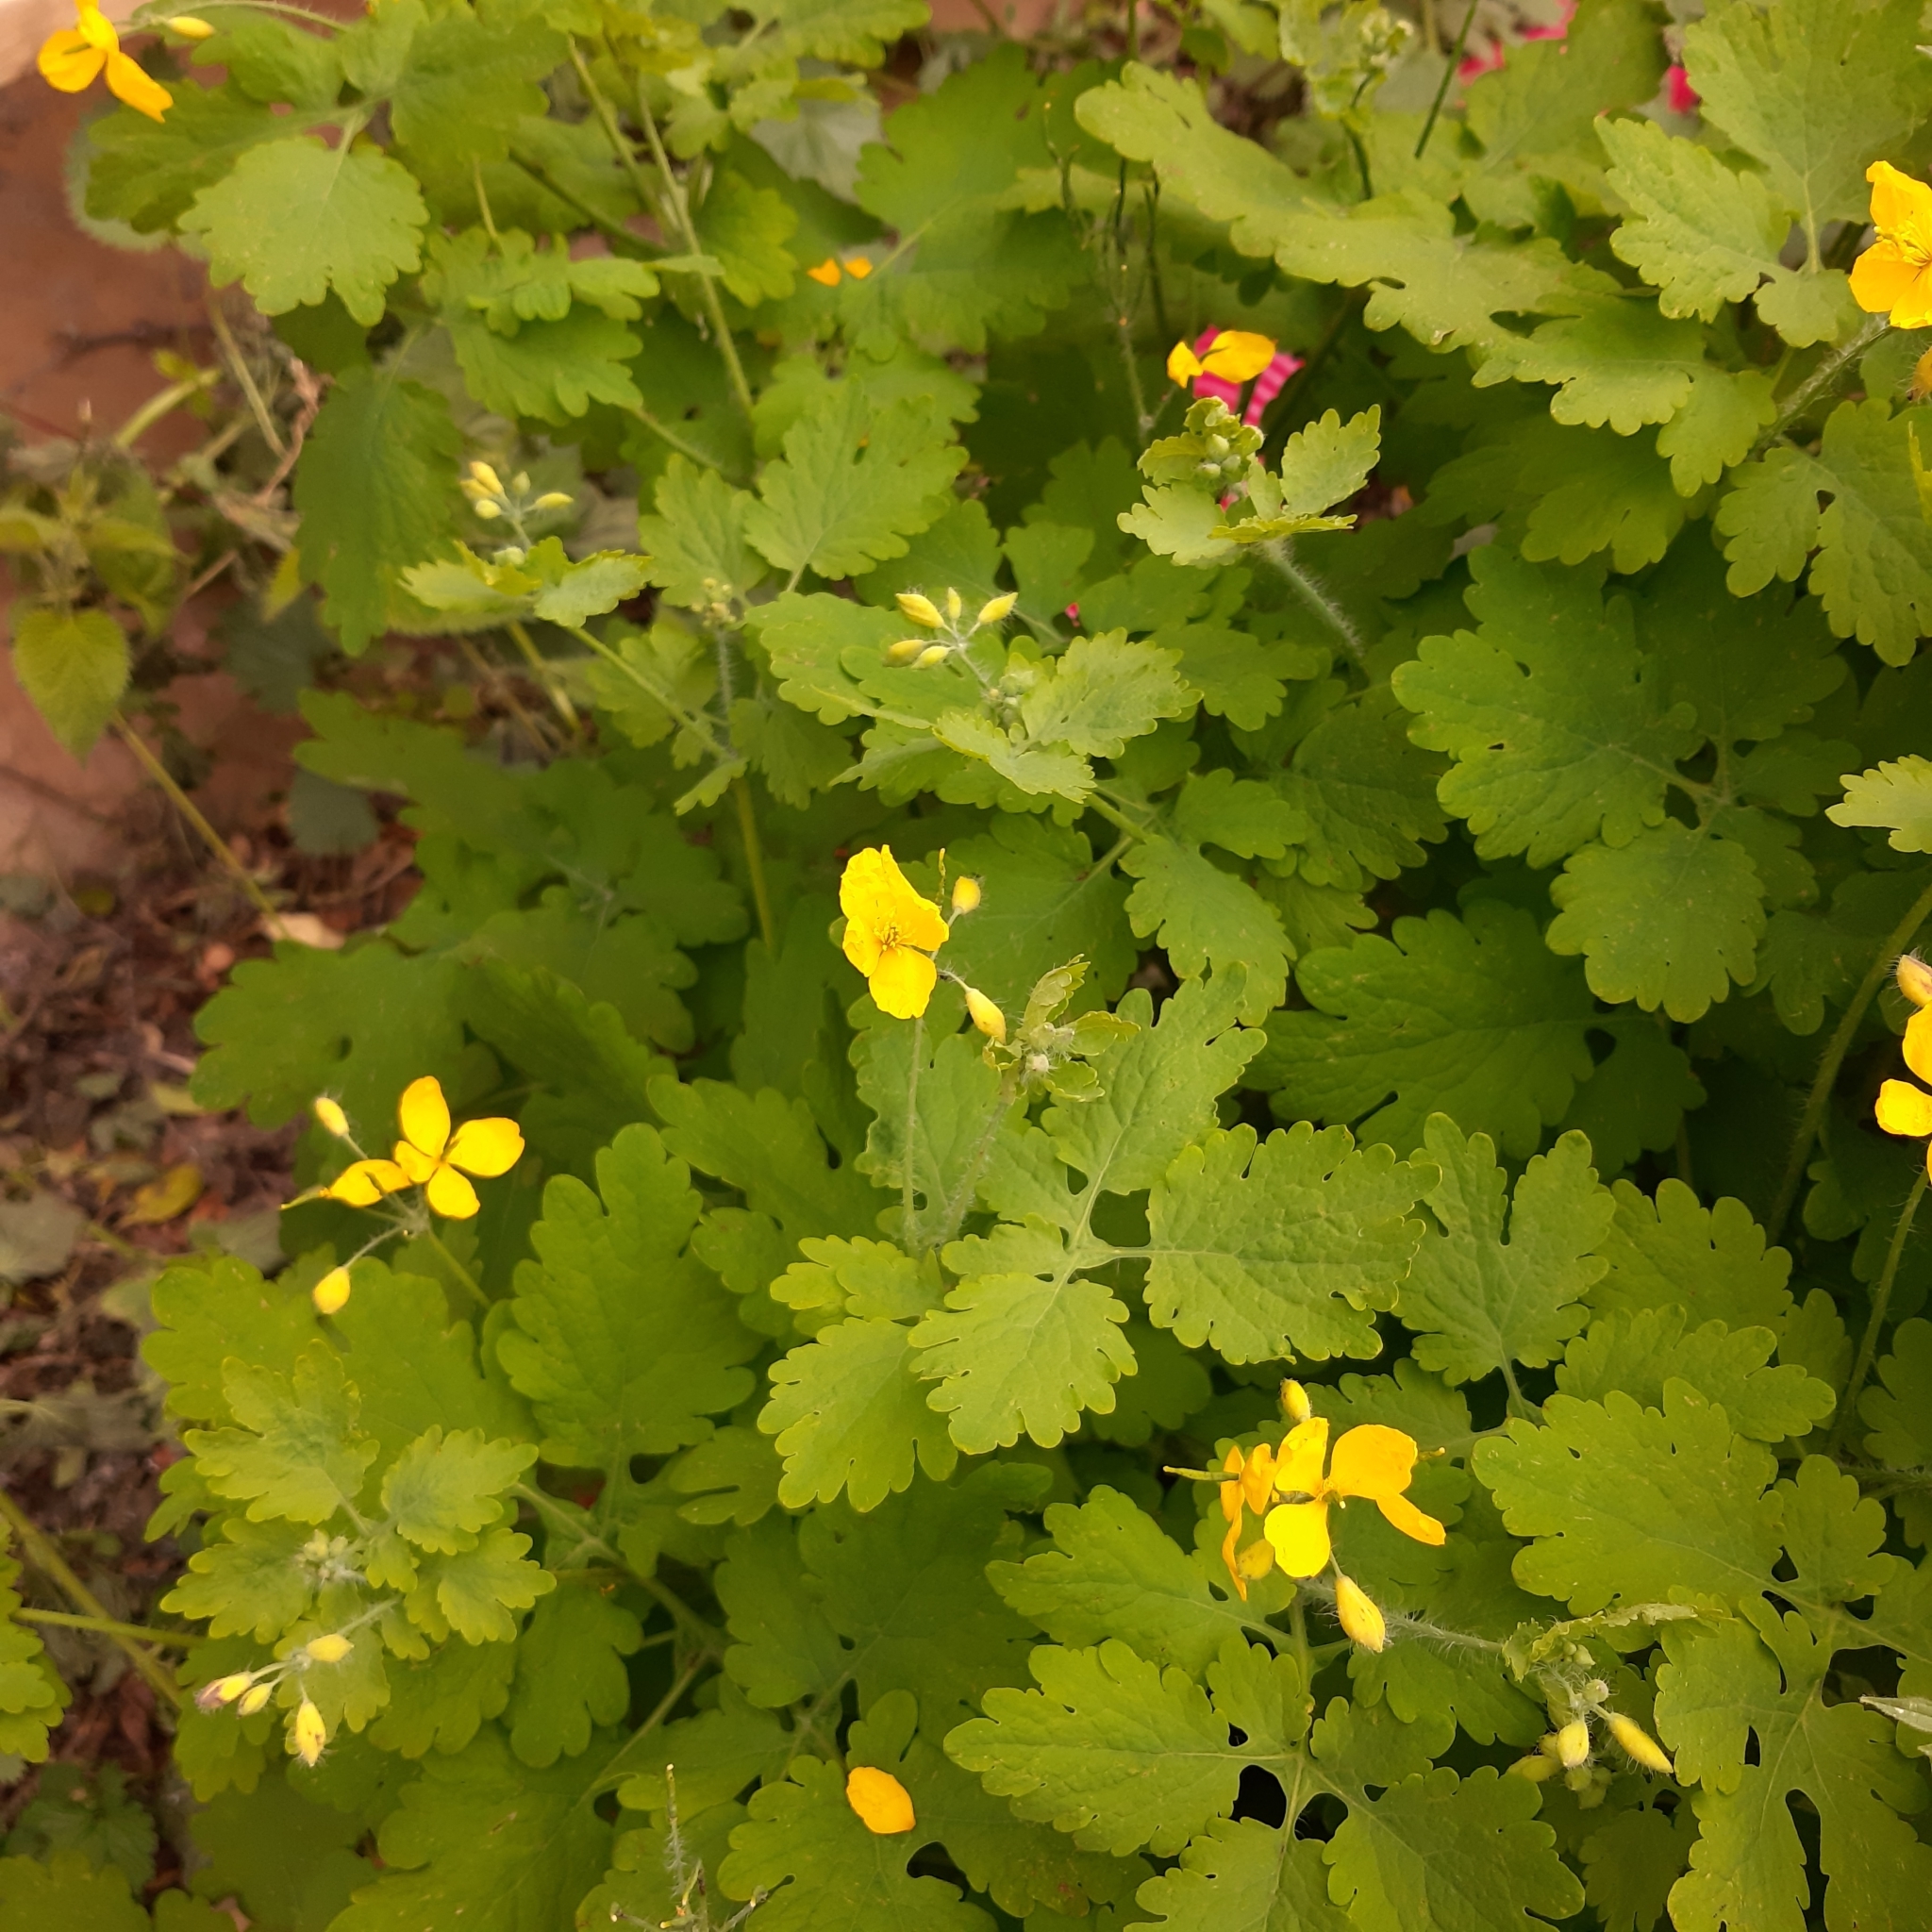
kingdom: Plantae
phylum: Tracheophyta
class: Magnoliopsida
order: Ranunculales
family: Papaveraceae
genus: Chelidonium
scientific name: Chelidonium majus
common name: Greater celandine
